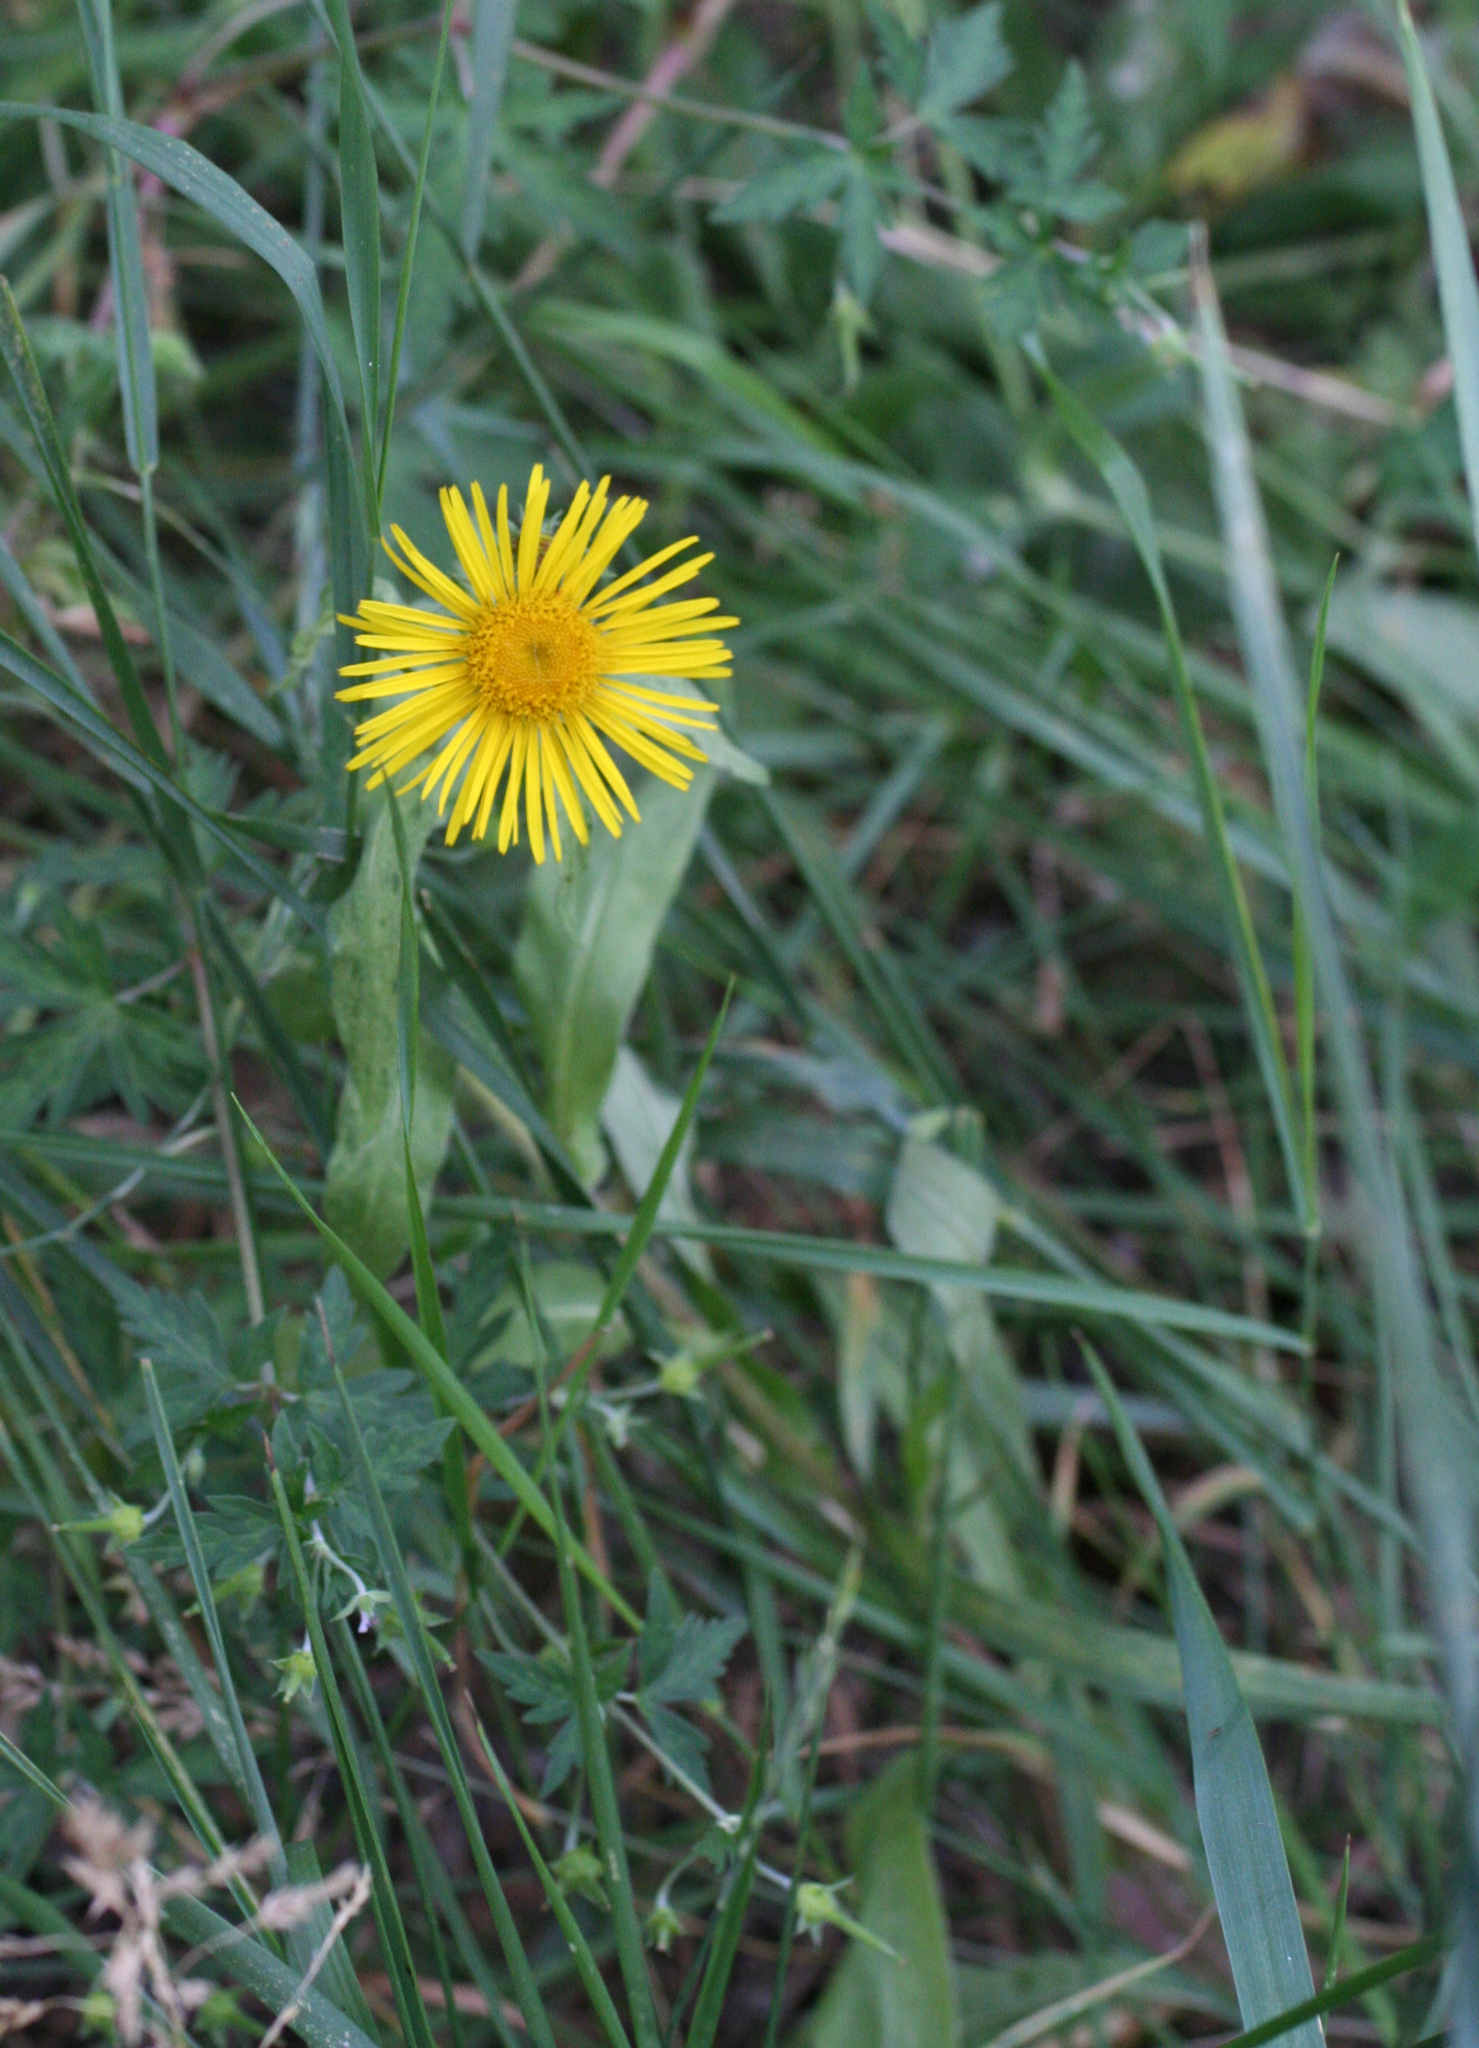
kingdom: Plantae
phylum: Tracheophyta
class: Magnoliopsida
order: Asterales
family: Asteraceae
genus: Pentanema
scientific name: Pentanema britannicum
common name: British elecampane
